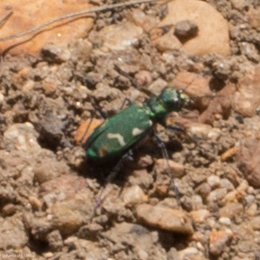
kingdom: Animalia
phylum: Arthropoda
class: Insecta
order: Coleoptera
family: Carabidae
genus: Cicindela
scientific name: Cicindela longilabris
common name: Boreal long-lipped tiger beetle
